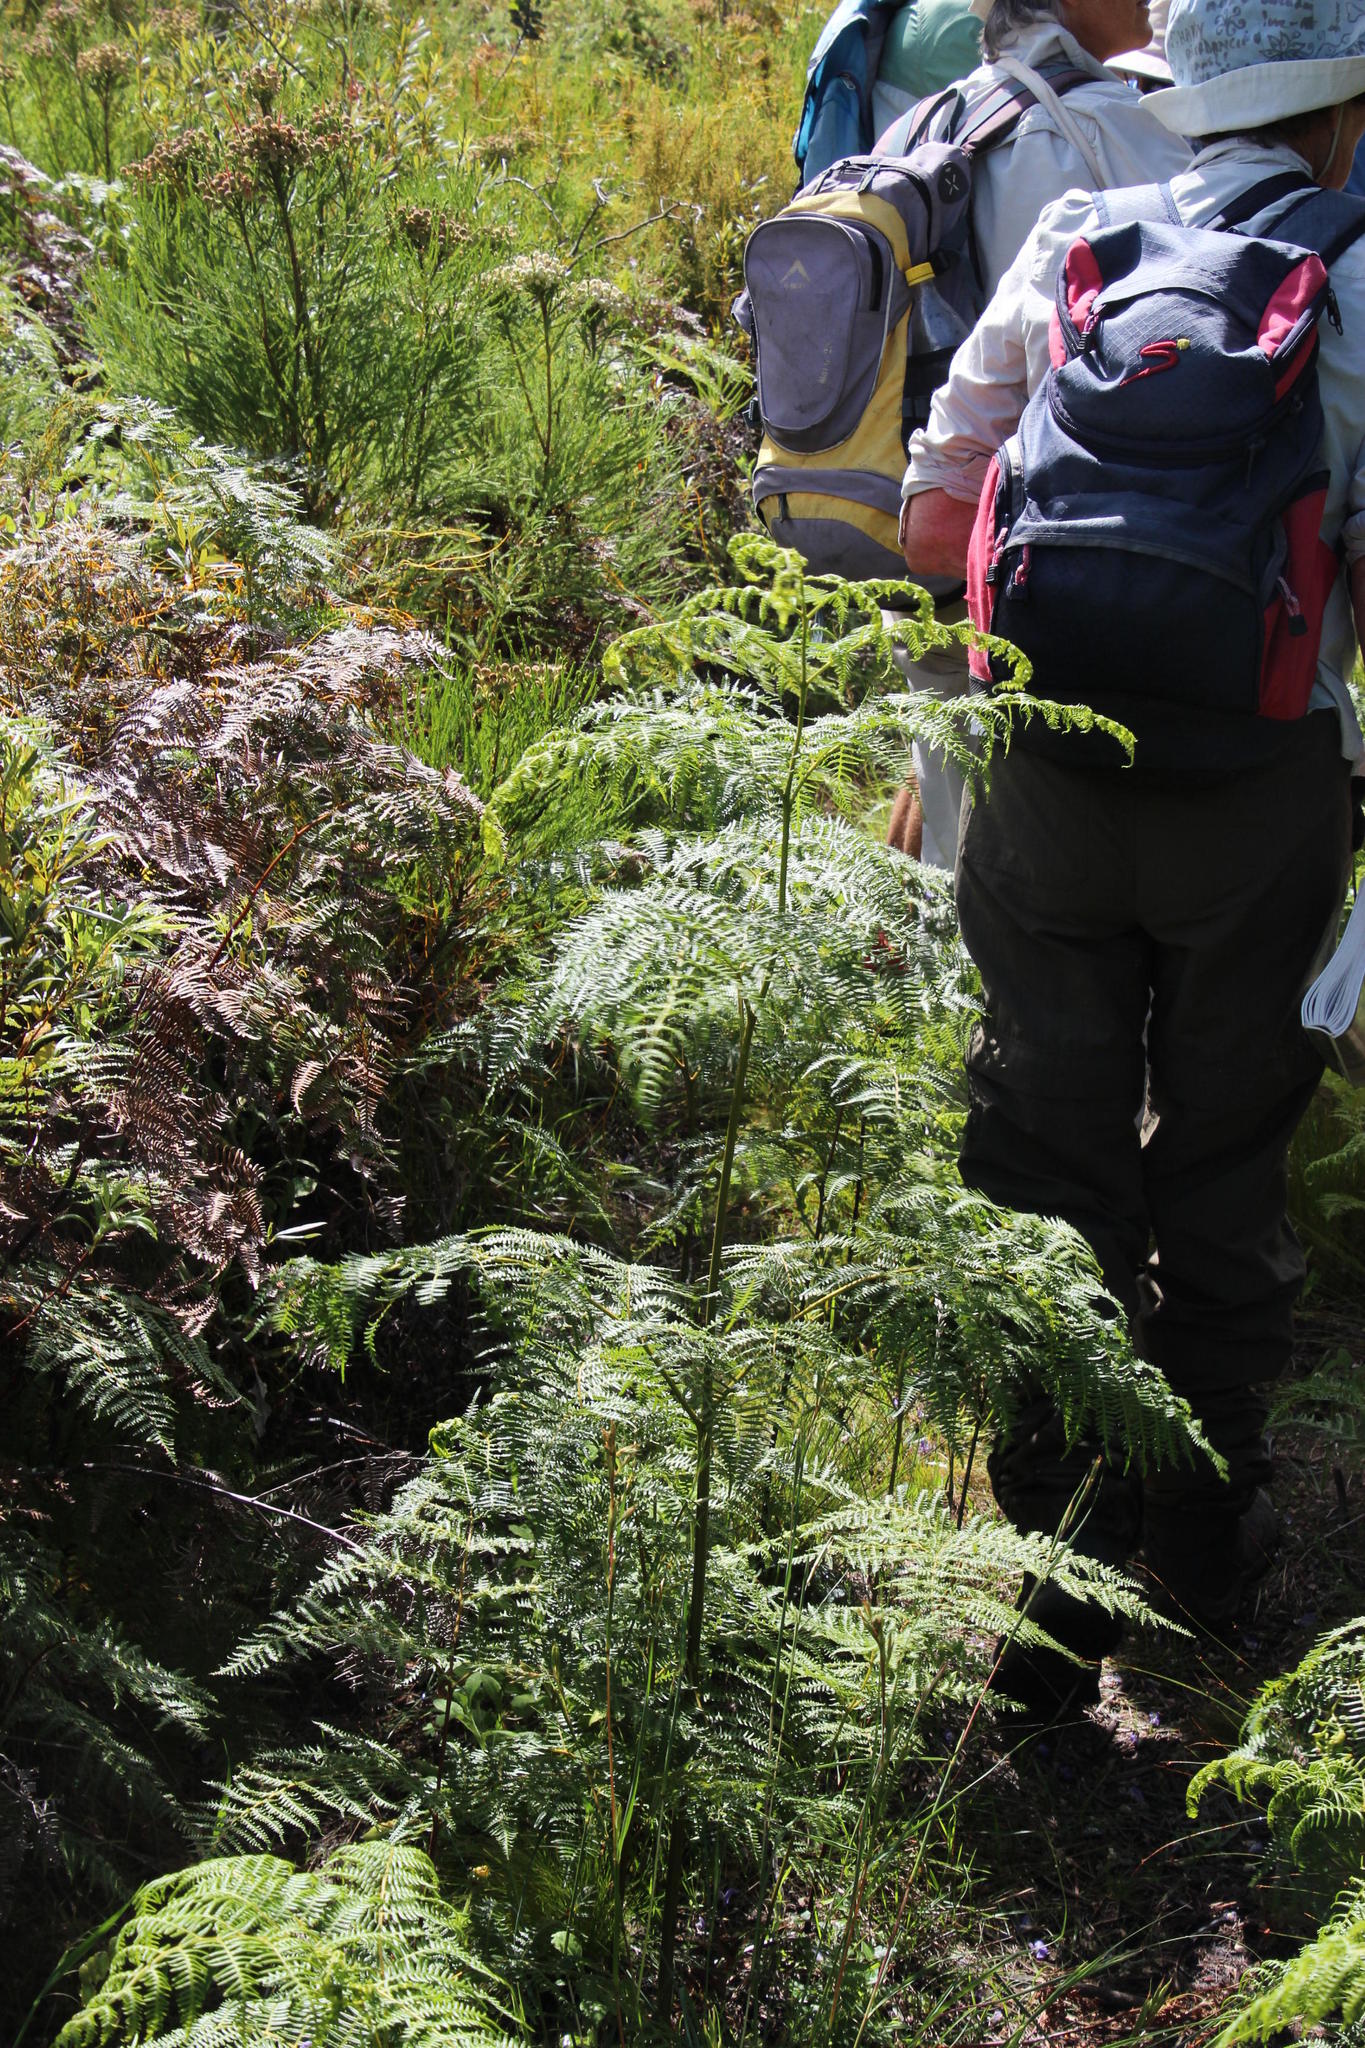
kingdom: Plantae
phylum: Tracheophyta
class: Polypodiopsida
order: Polypodiales
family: Dennstaedtiaceae
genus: Pteridium
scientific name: Pteridium aquilinum
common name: Bracken
